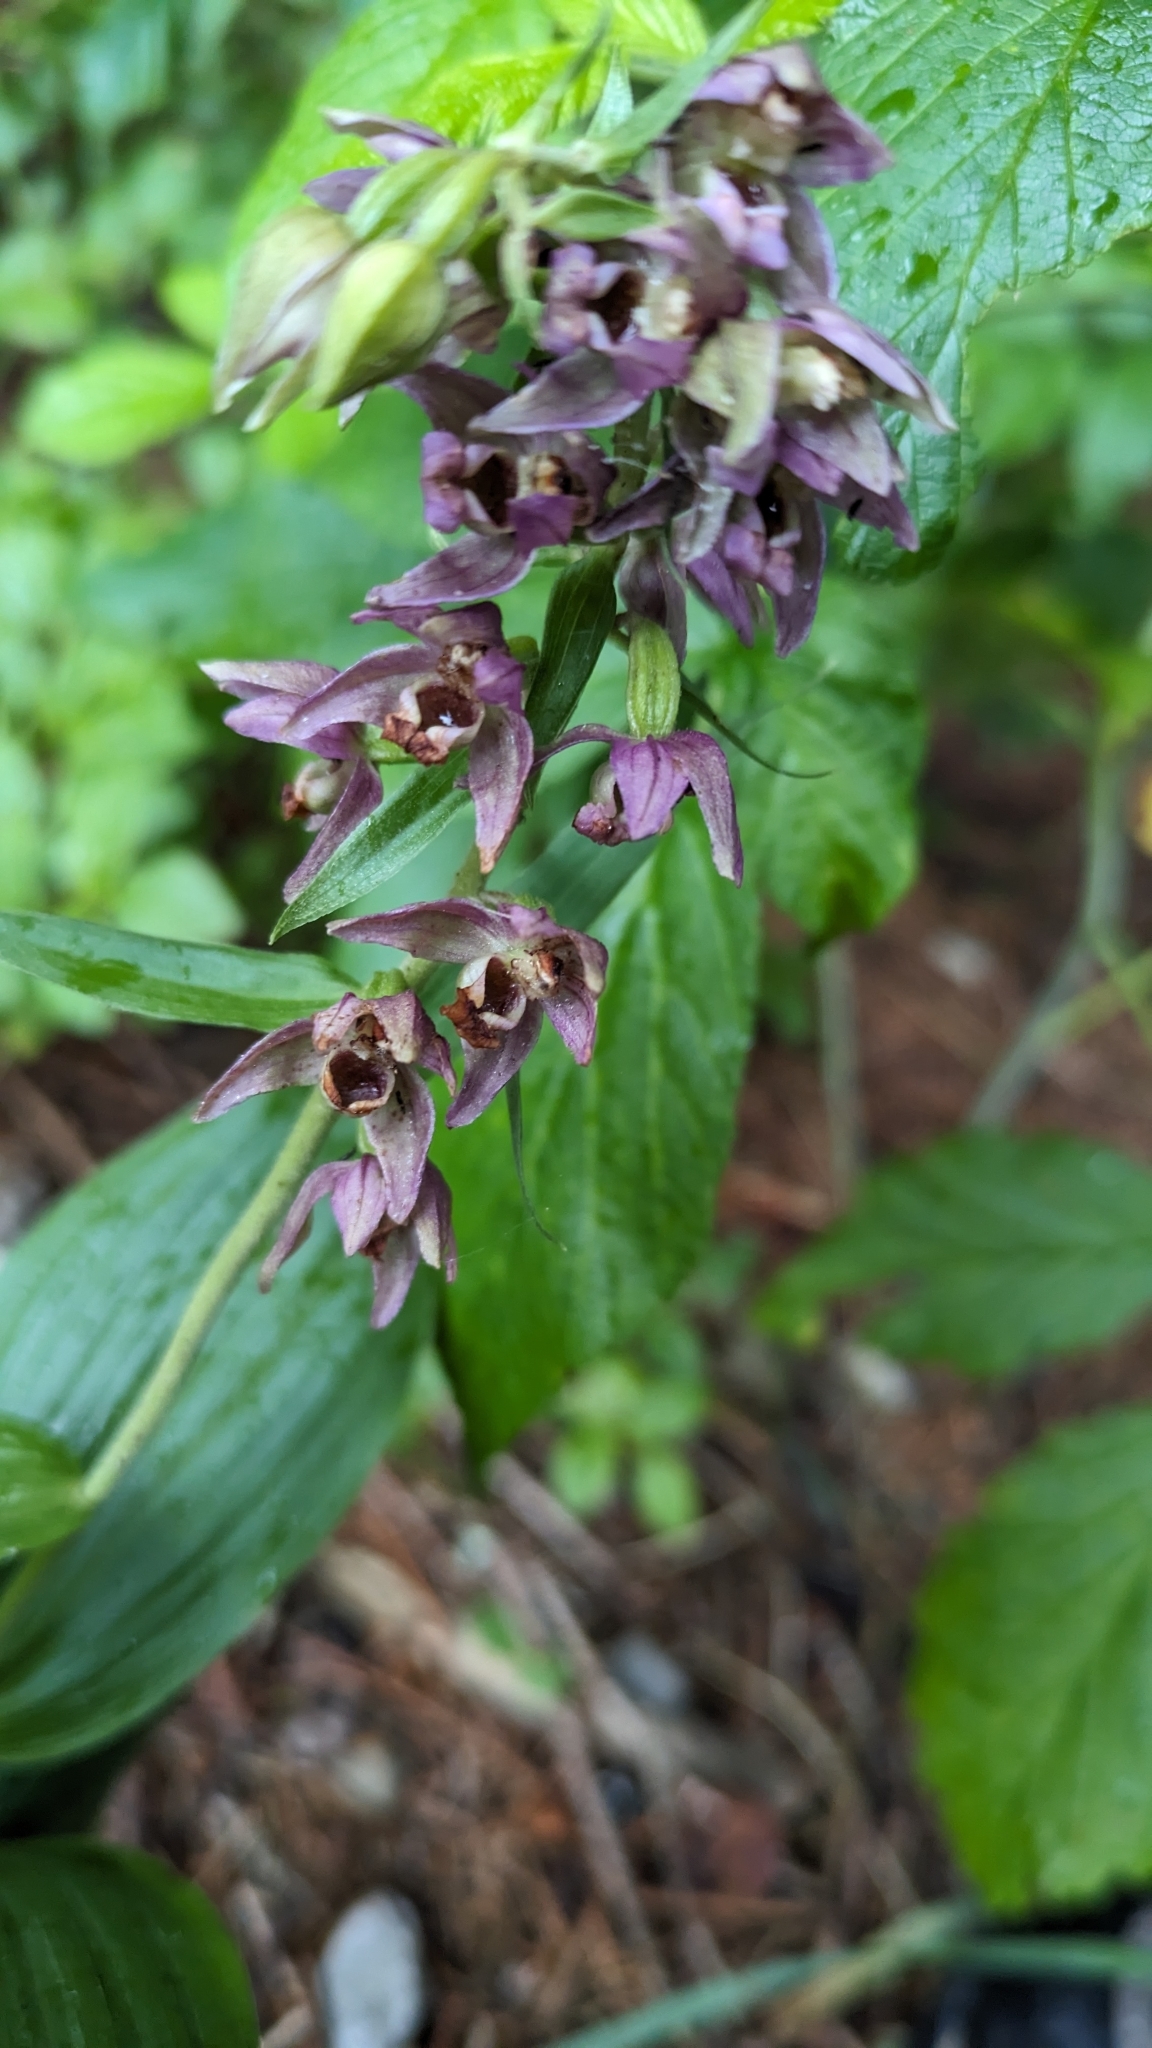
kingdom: Plantae
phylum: Tracheophyta
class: Liliopsida
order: Asparagales
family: Orchidaceae
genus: Epipactis
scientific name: Epipactis helleborine
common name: Broad-leaved helleborine
